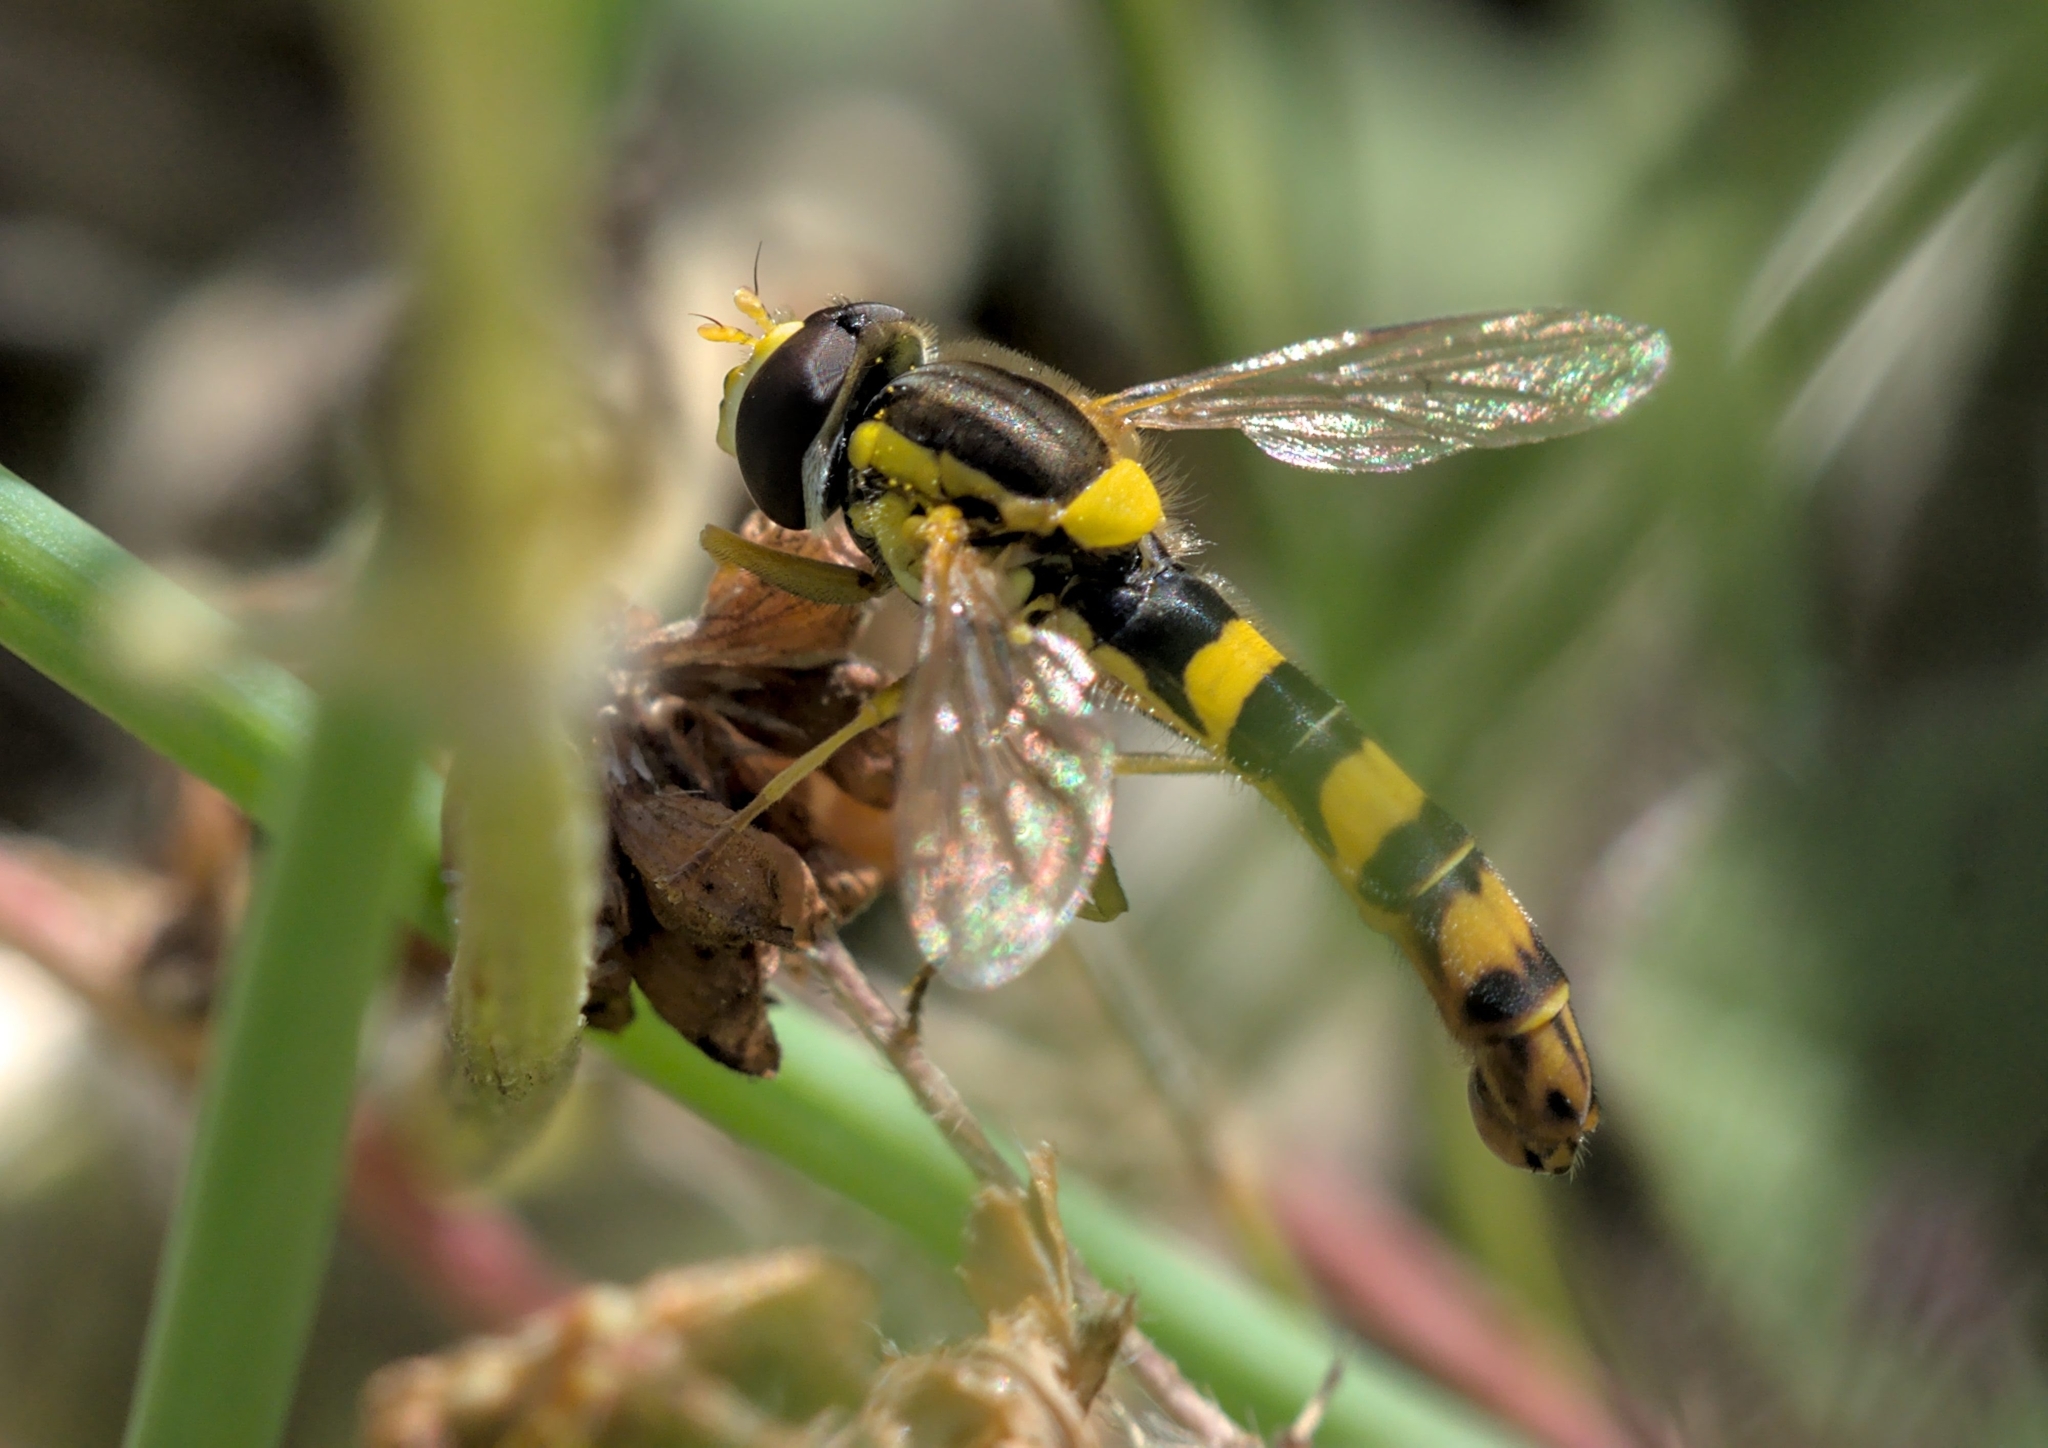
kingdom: Animalia
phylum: Arthropoda
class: Insecta
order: Diptera
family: Syrphidae
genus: Sphaerophoria
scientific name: Sphaerophoria scripta
